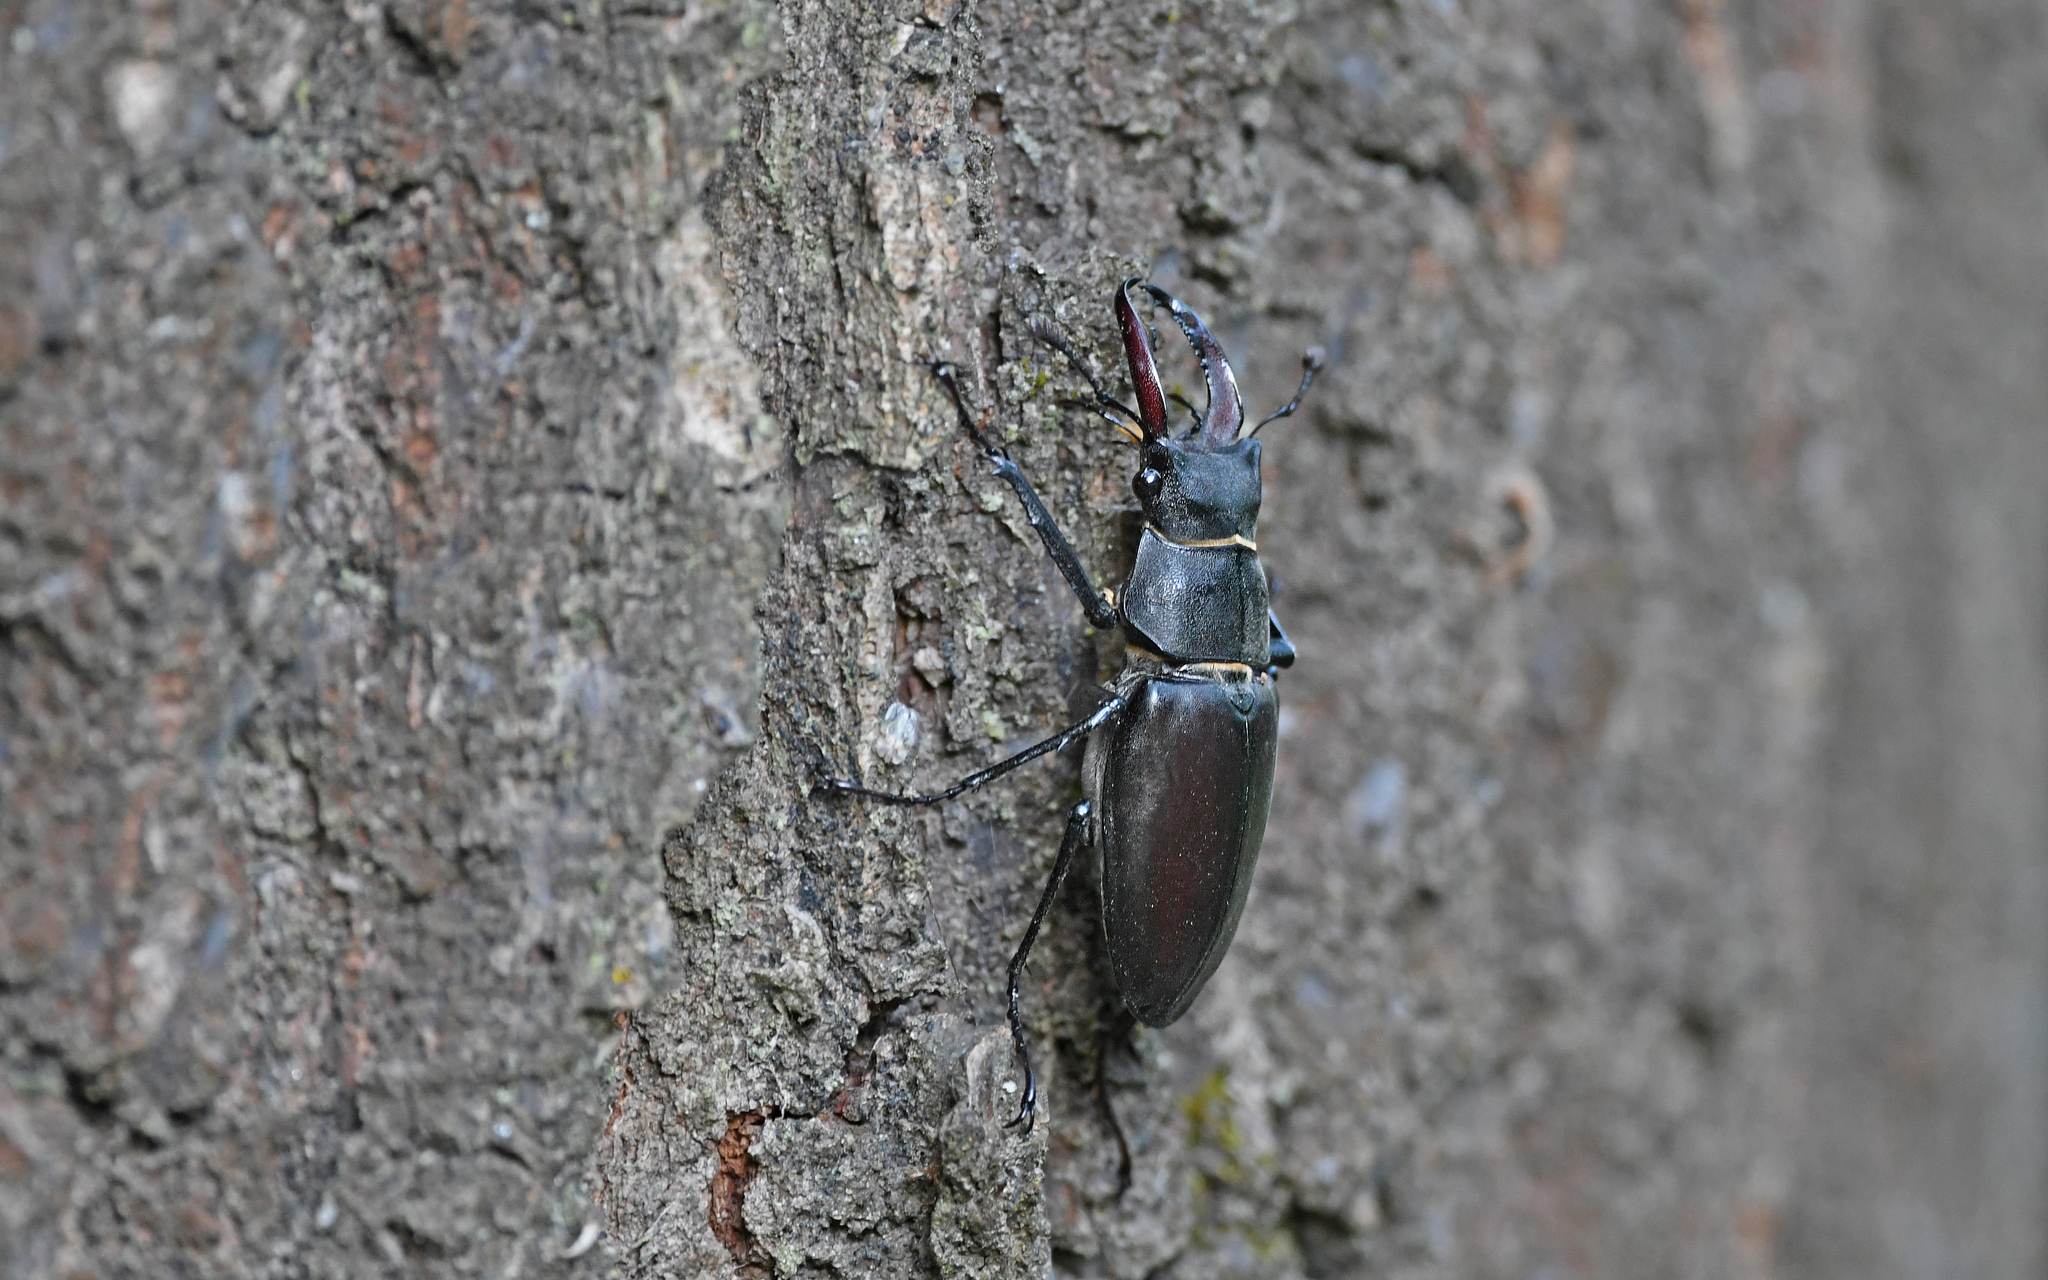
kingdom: Animalia
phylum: Arthropoda
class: Insecta
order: Coleoptera
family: Lucanidae
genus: Lucanus
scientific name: Lucanus cervus
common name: Stag beetle
